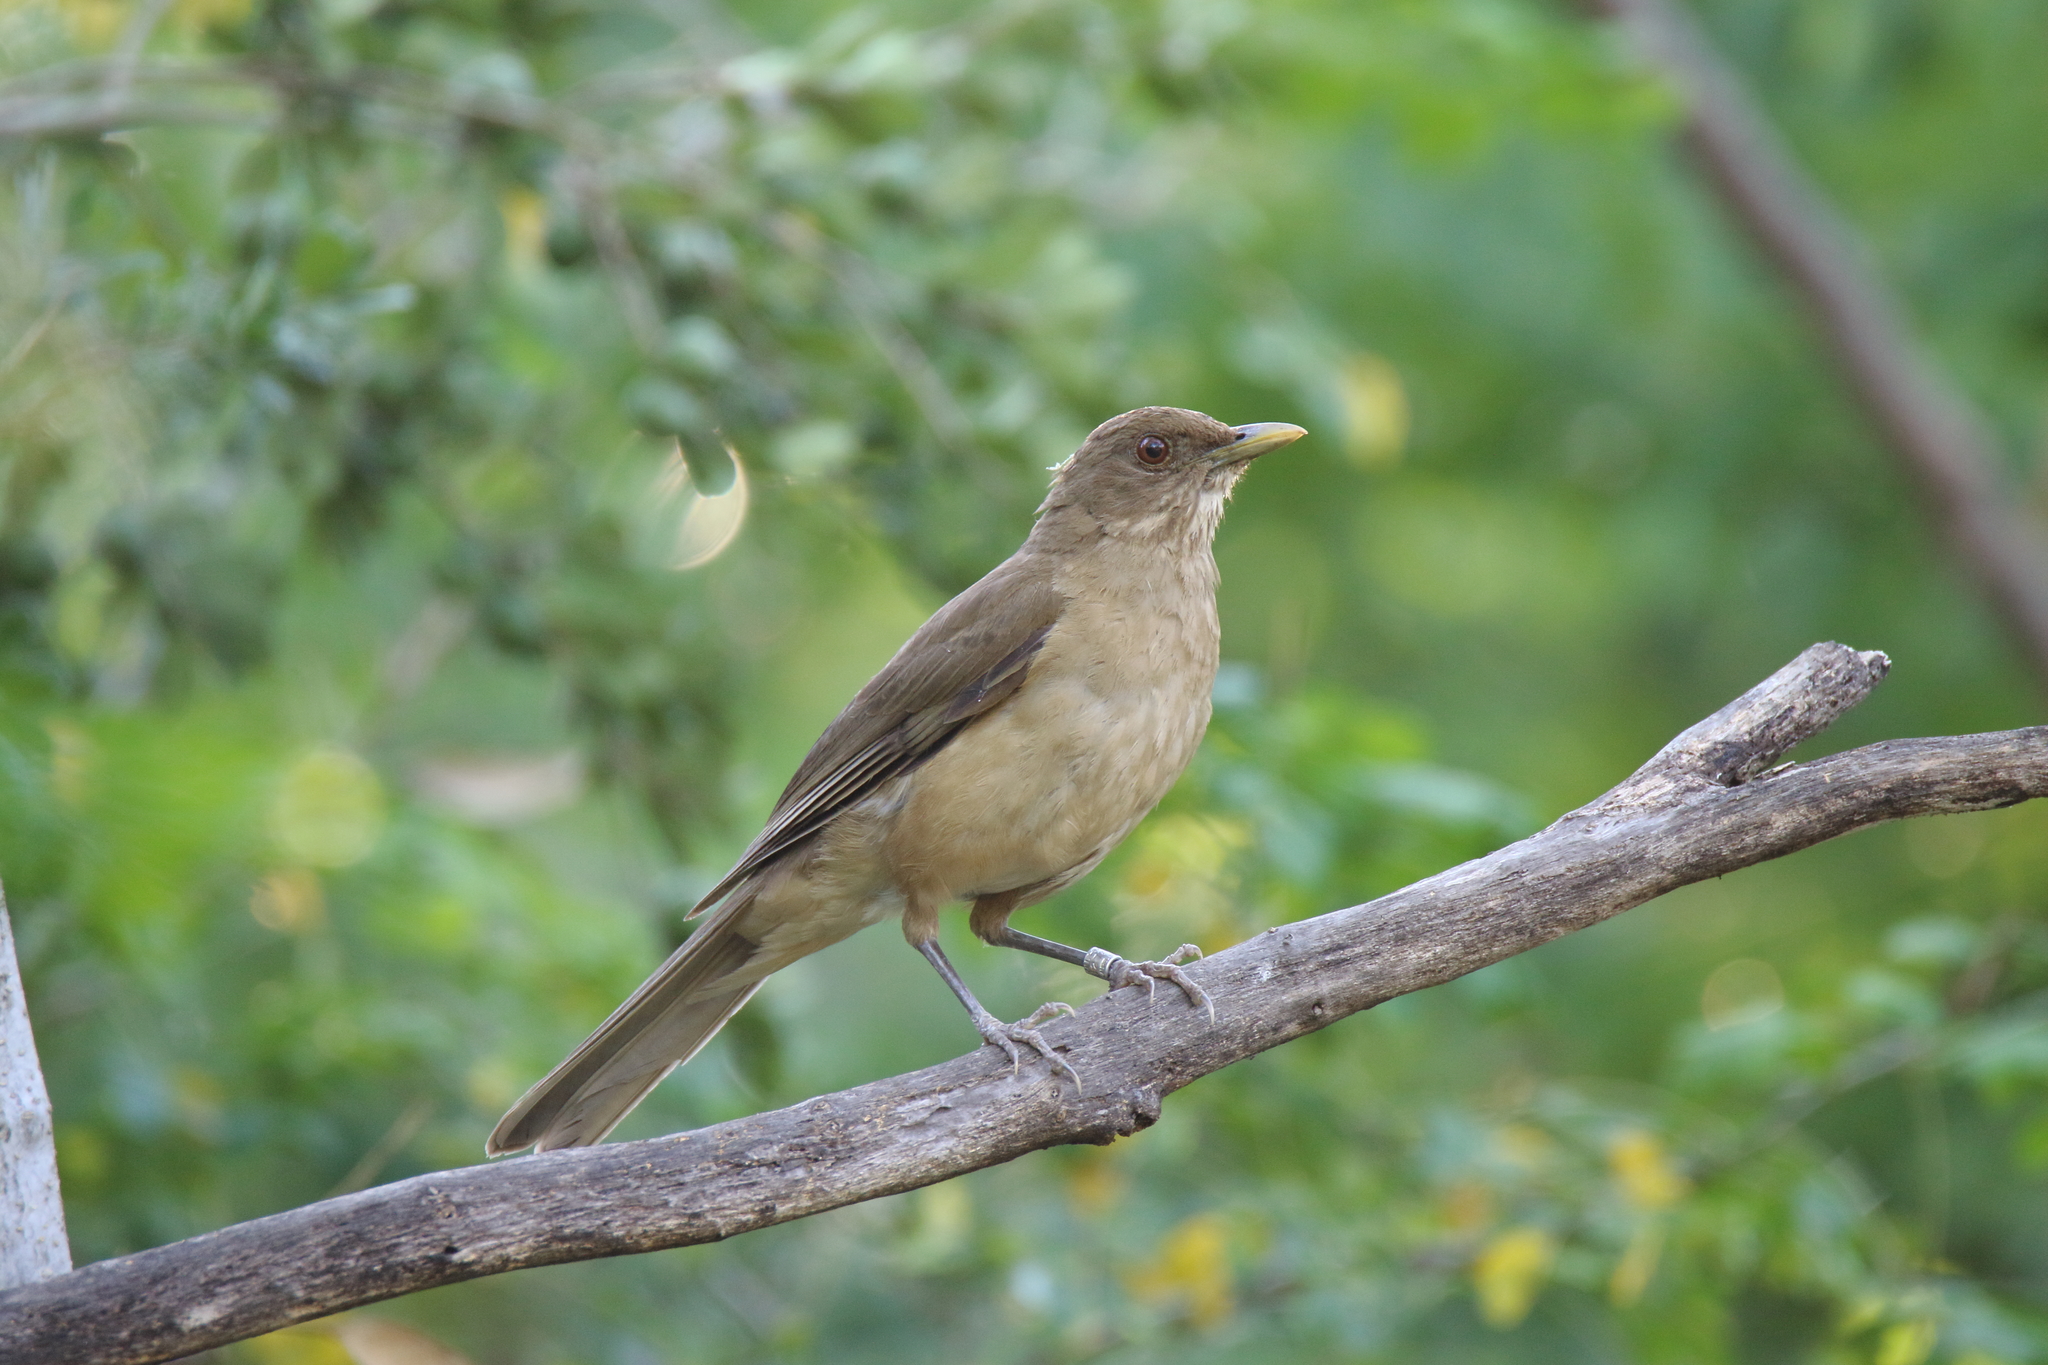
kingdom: Animalia
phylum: Chordata
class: Aves
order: Passeriformes
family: Turdidae
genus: Turdus
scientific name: Turdus grayi
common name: Clay-colored thrush
